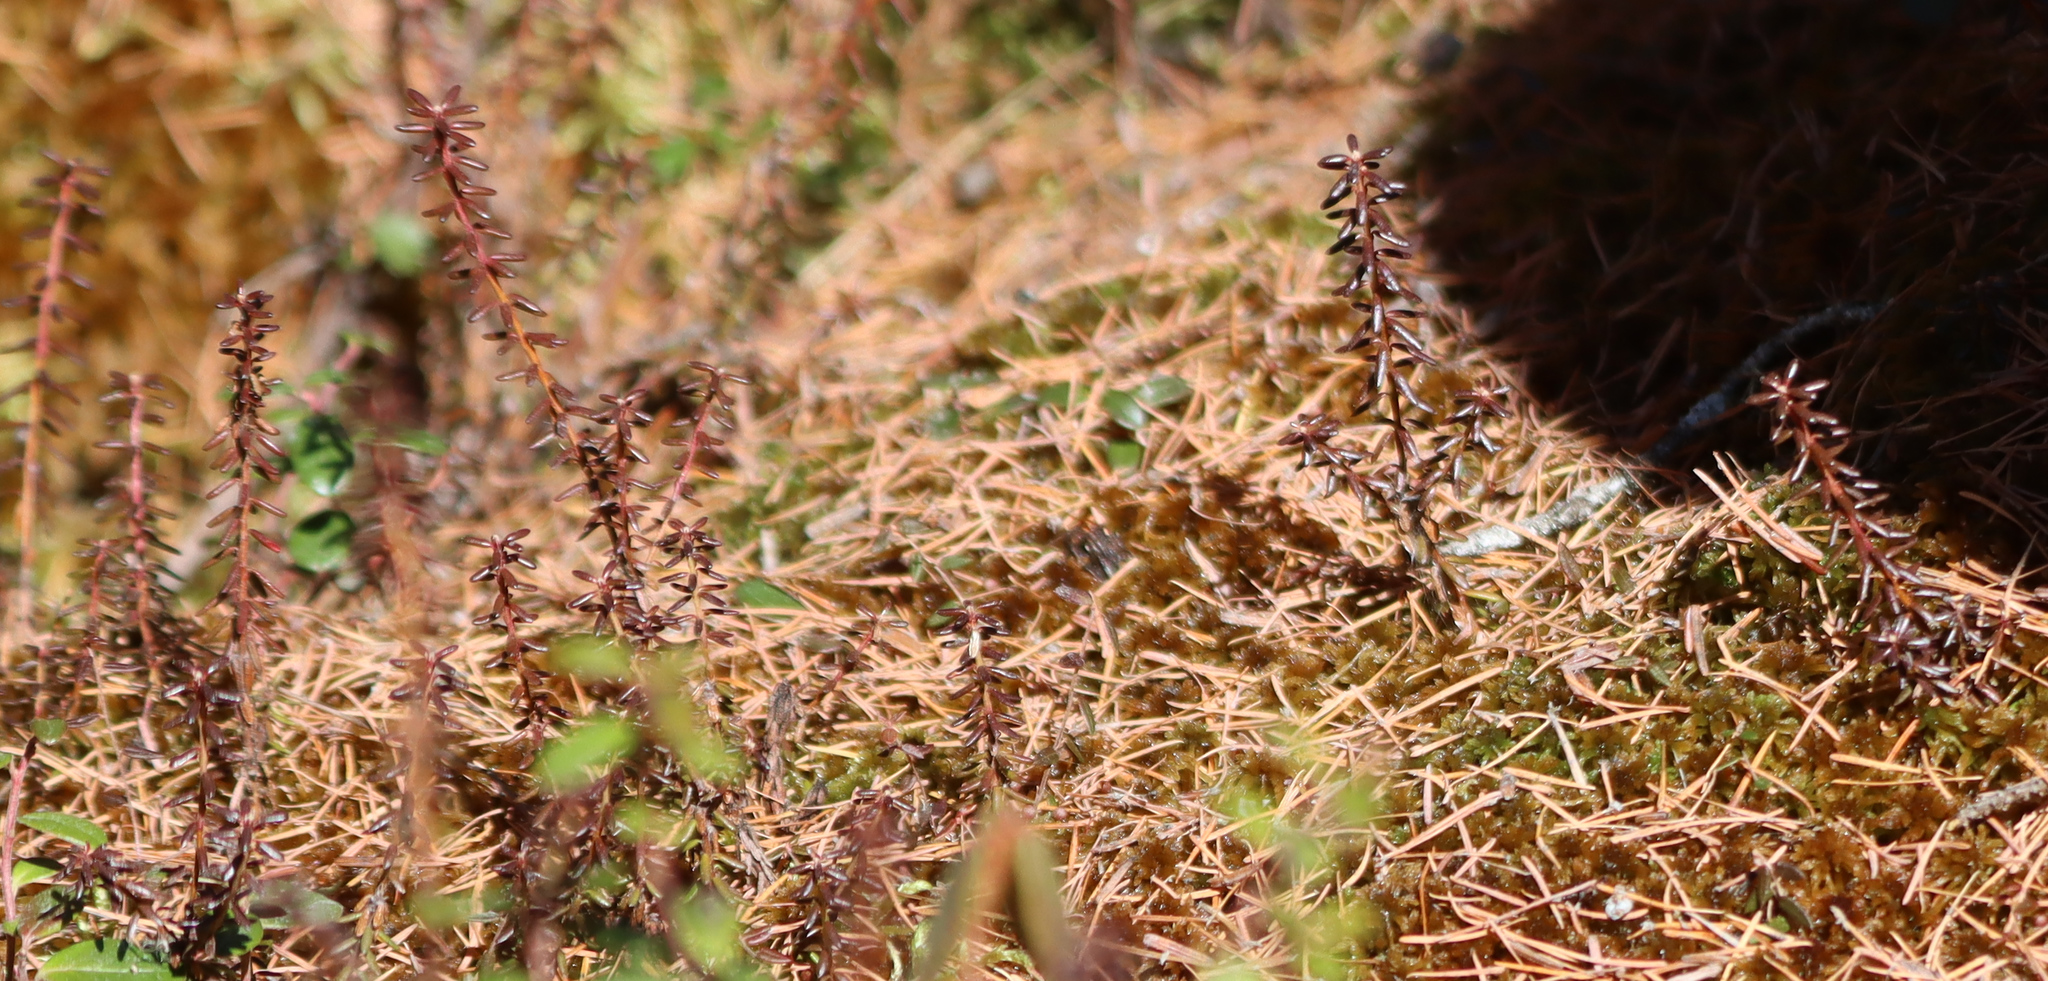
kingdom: Plantae
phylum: Tracheophyta
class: Magnoliopsida
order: Ericales
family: Ericaceae
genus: Empetrum
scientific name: Empetrum hermaphroditum
